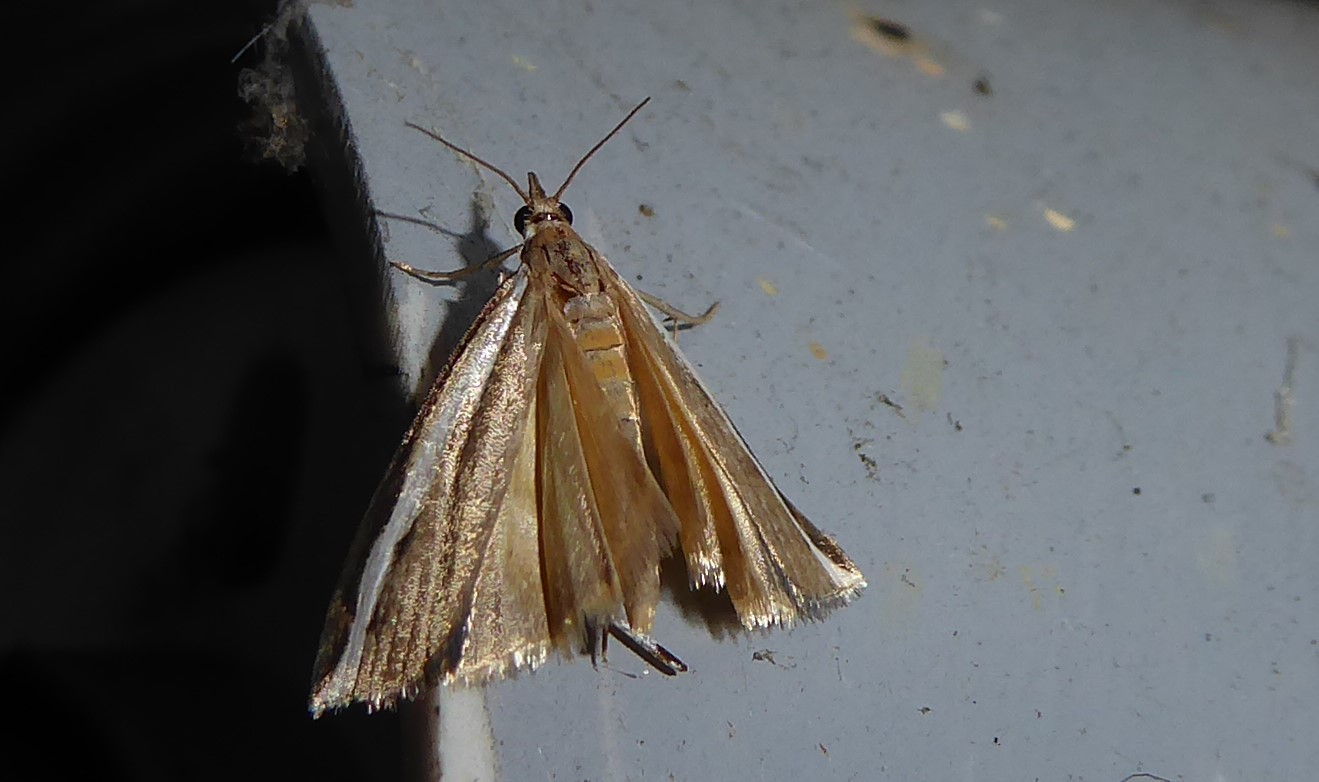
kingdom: Animalia
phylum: Arthropoda
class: Insecta
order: Lepidoptera
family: Crambidae
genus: Orocrambus
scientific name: Orocrambus flexuosellus
